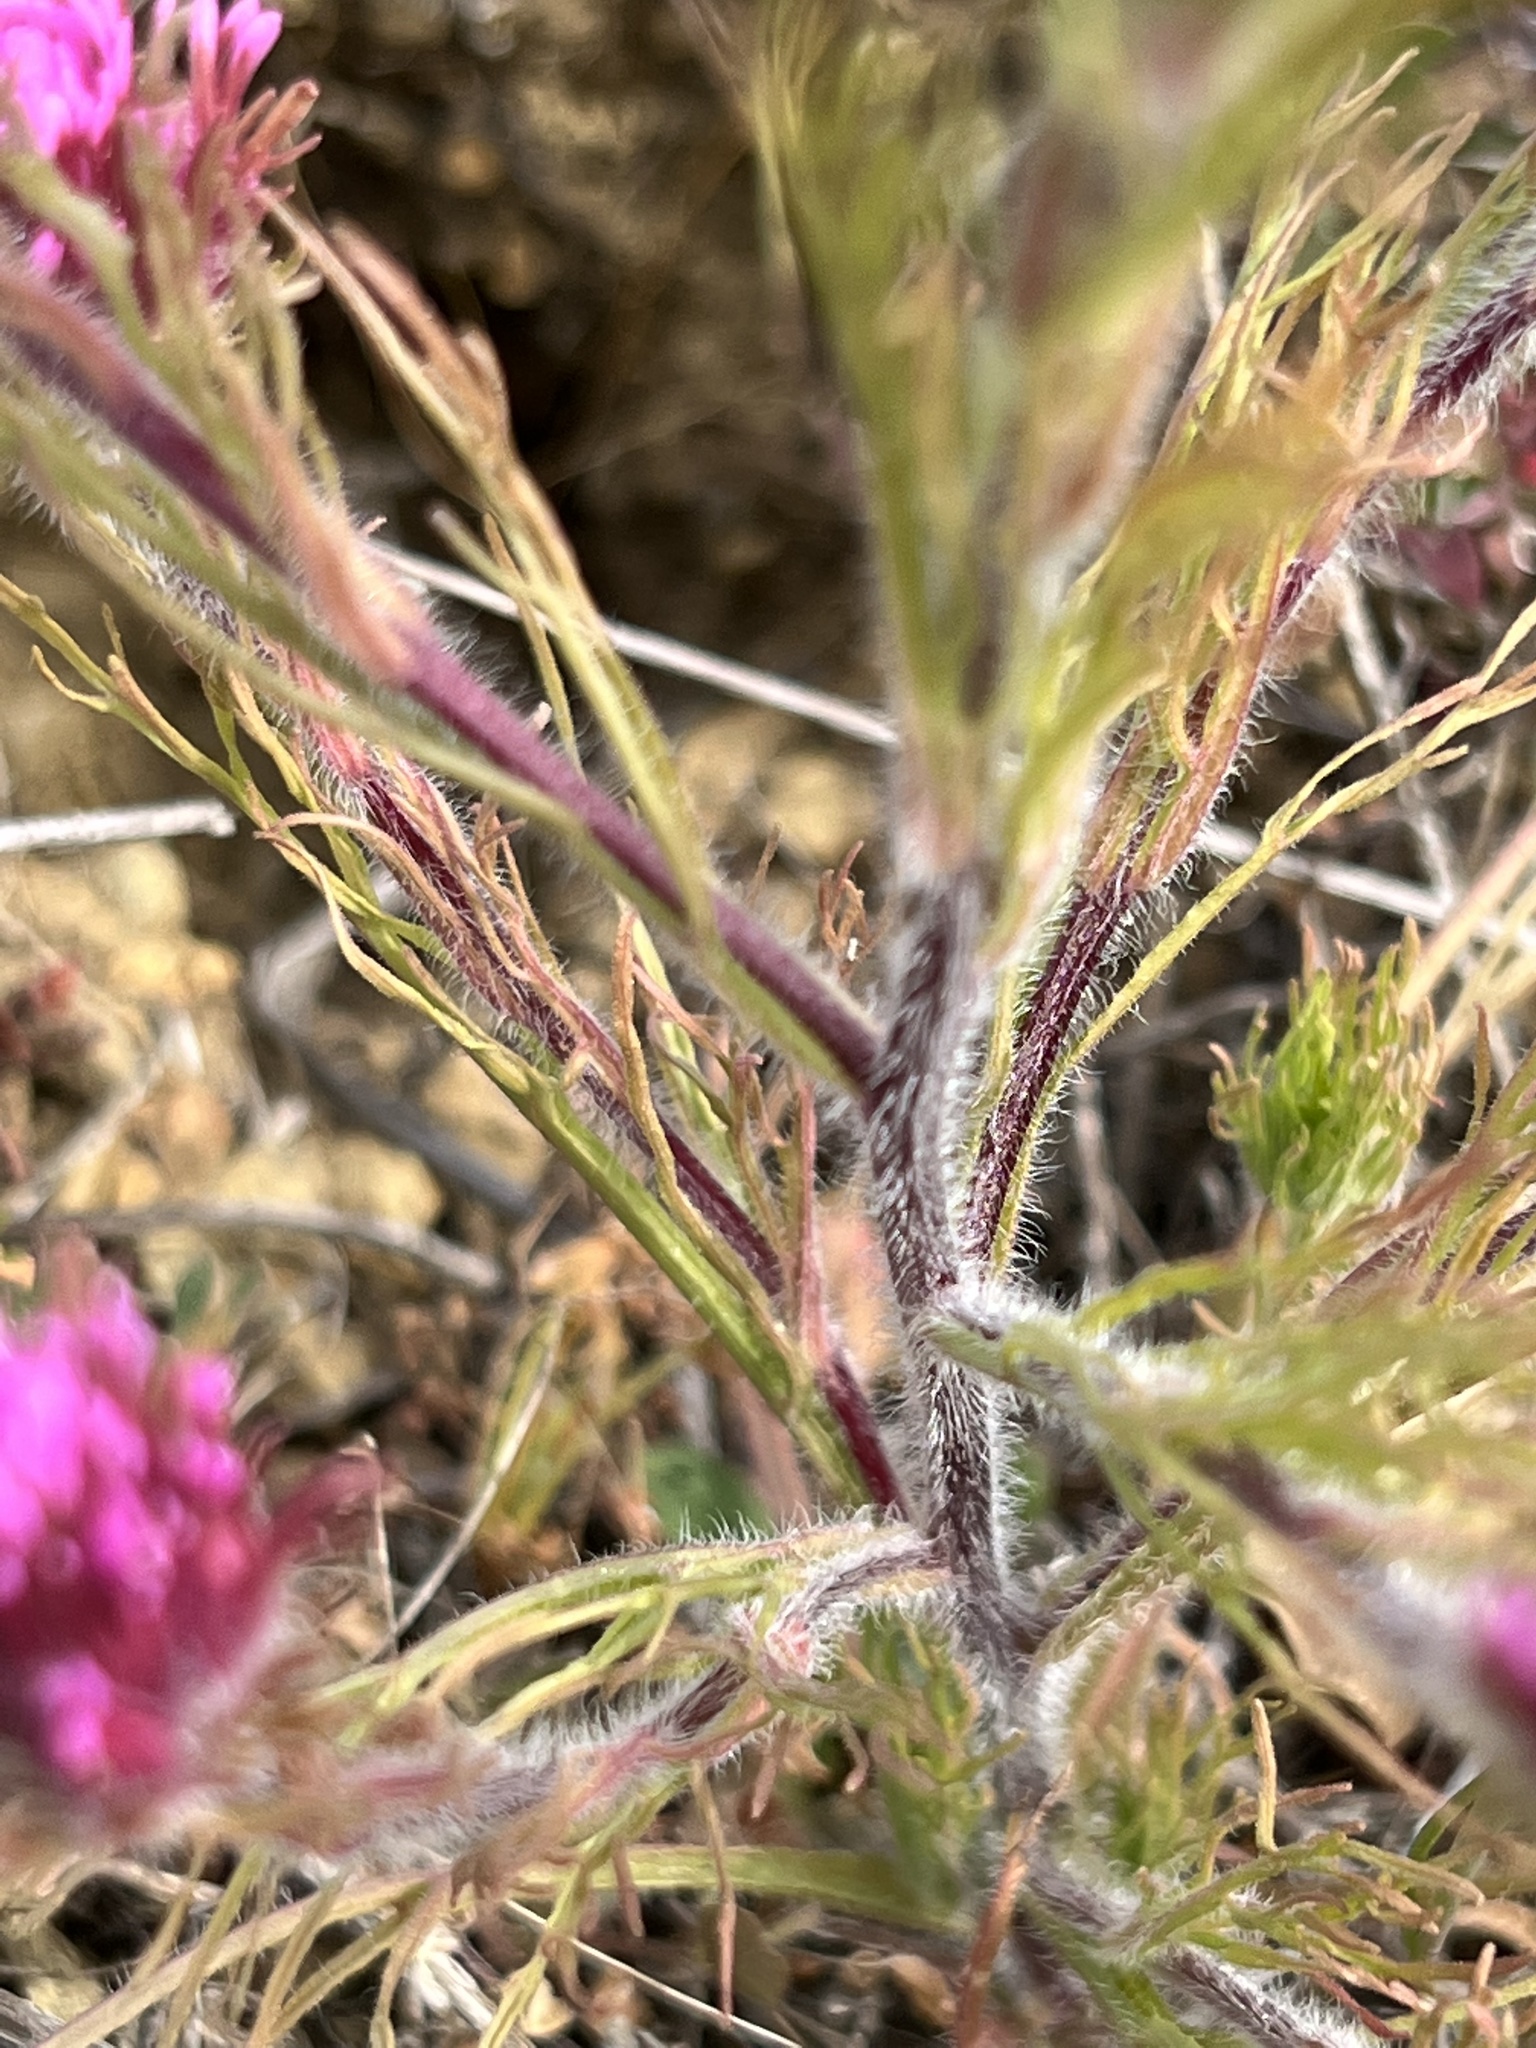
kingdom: Plantae
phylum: Tracheophyta
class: Magnoliopsida
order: Lamiales
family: Orobanchaceae
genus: Castilleja
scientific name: Castilleja exserta
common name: Purple owl-clover
